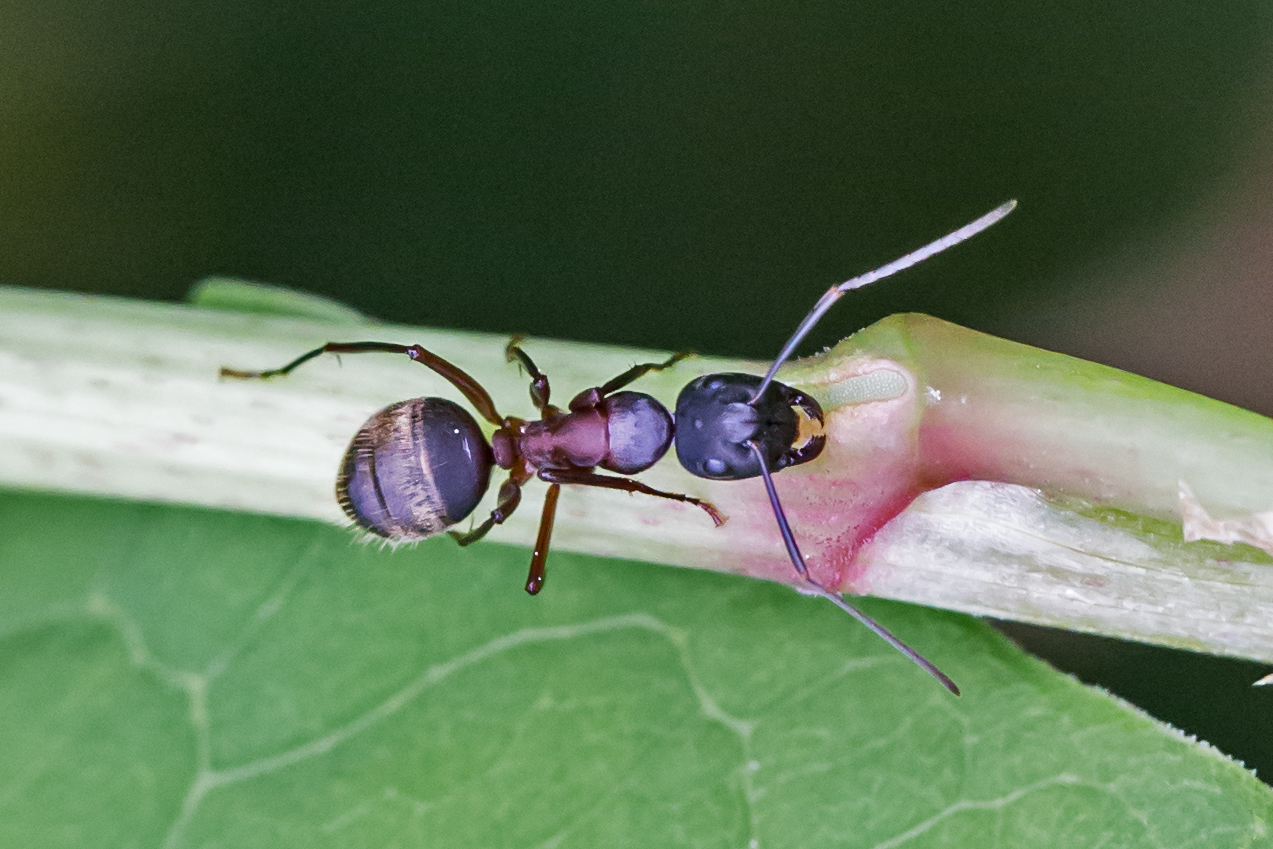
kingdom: Animalia
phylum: Arthropoda
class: Insecta
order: Hymenoptera
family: Formicidae
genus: Camponotus
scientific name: Camponotus chromaiodes
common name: Red carpenter ant
